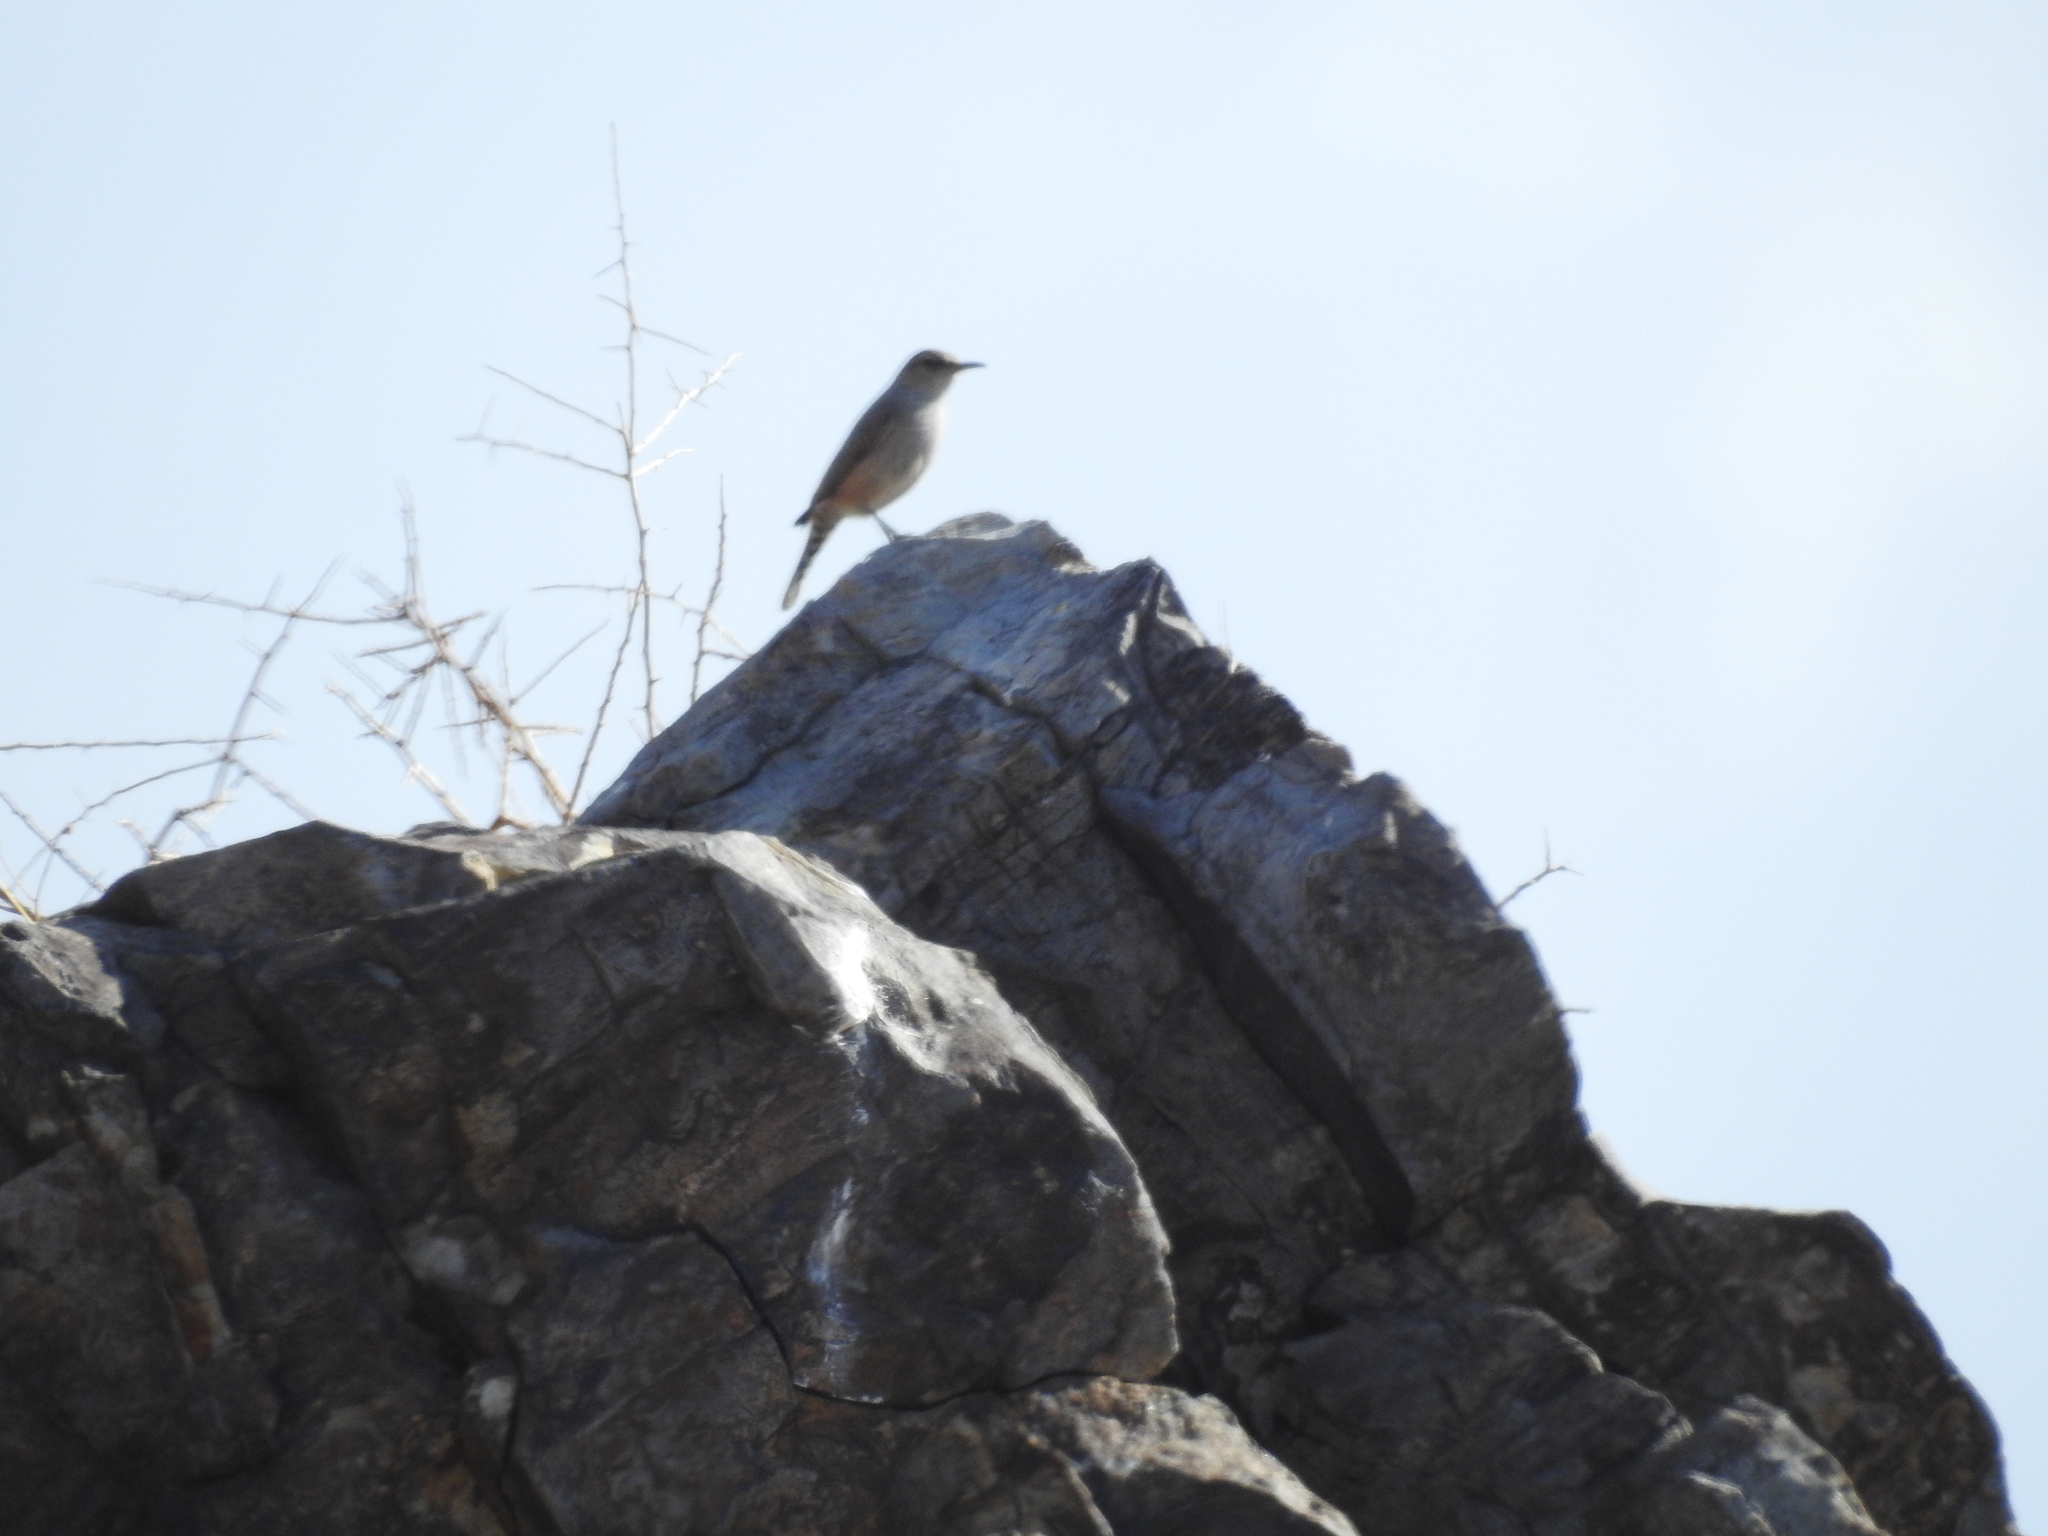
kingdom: Animalia
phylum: Chordata
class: Aves
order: Passeriformes
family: Troglodytidae
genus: Salpinctes
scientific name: Salpinctes obsoletus
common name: Rock wren
